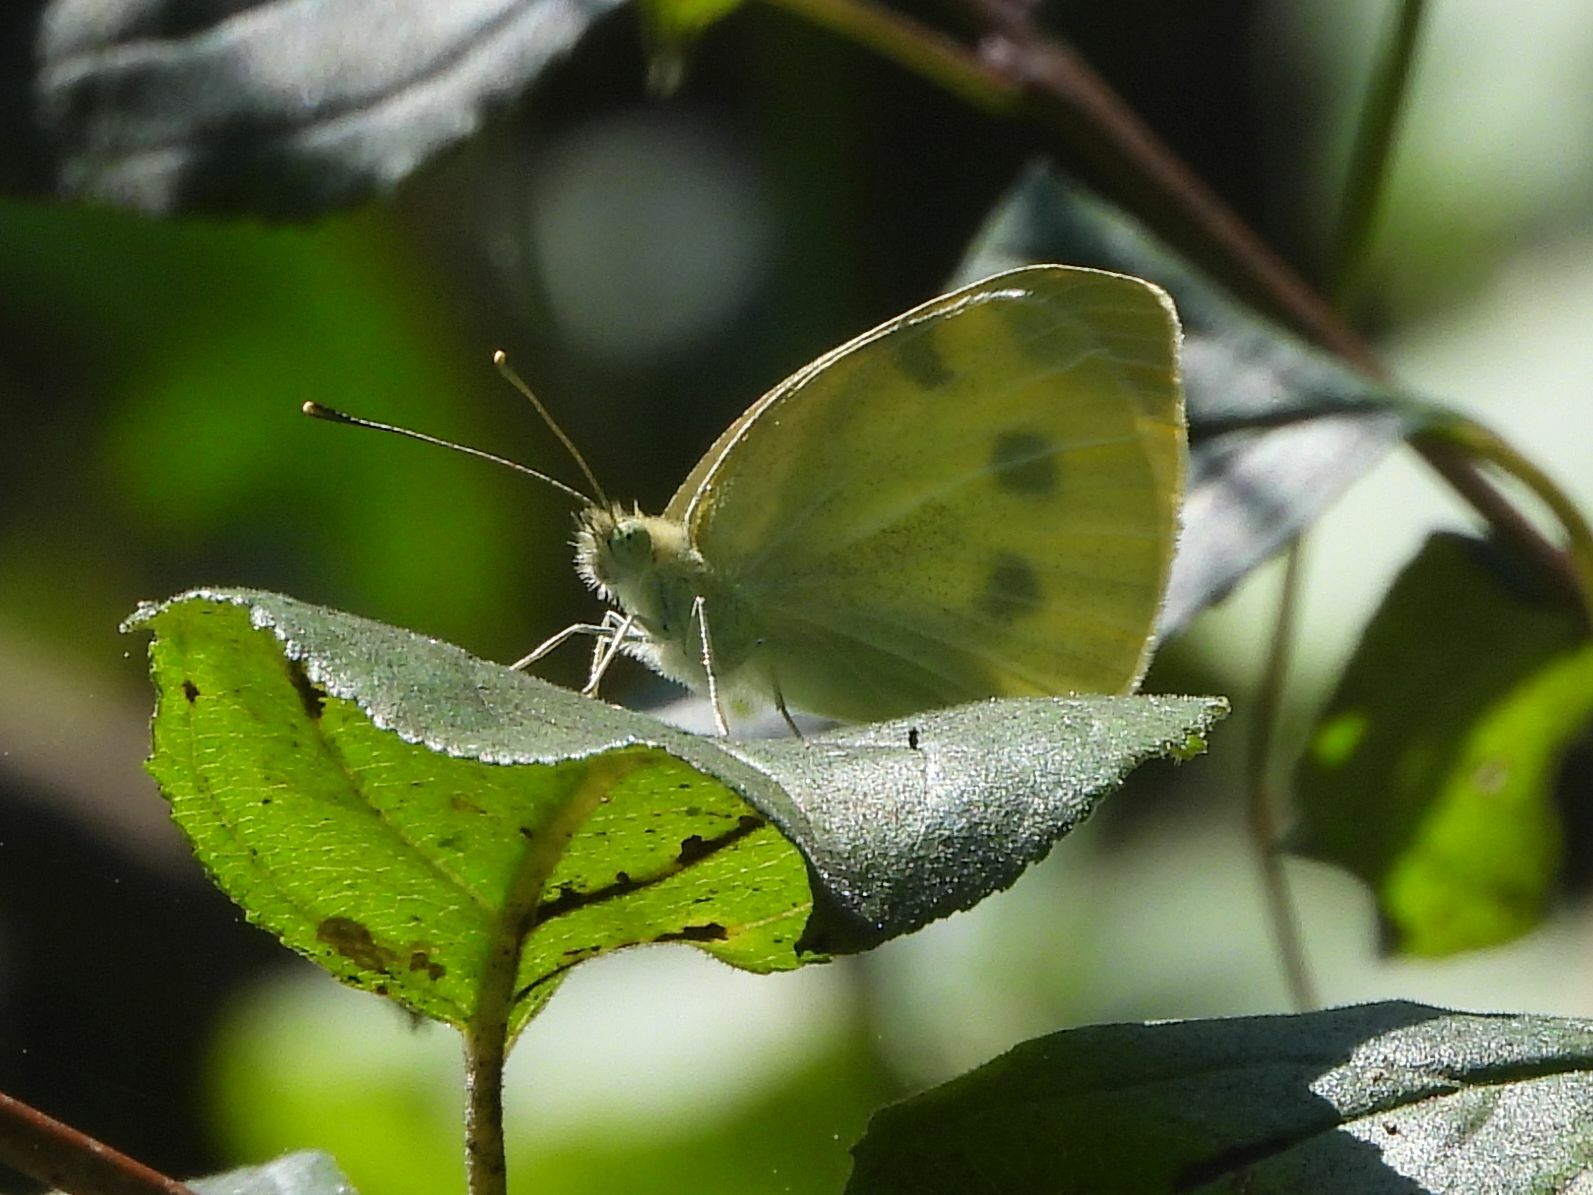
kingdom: Animalia
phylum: Arthropoda
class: Insecta
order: Lepidoptera
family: Pieridae
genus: Pieris
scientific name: Pieris rapae
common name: Small white
